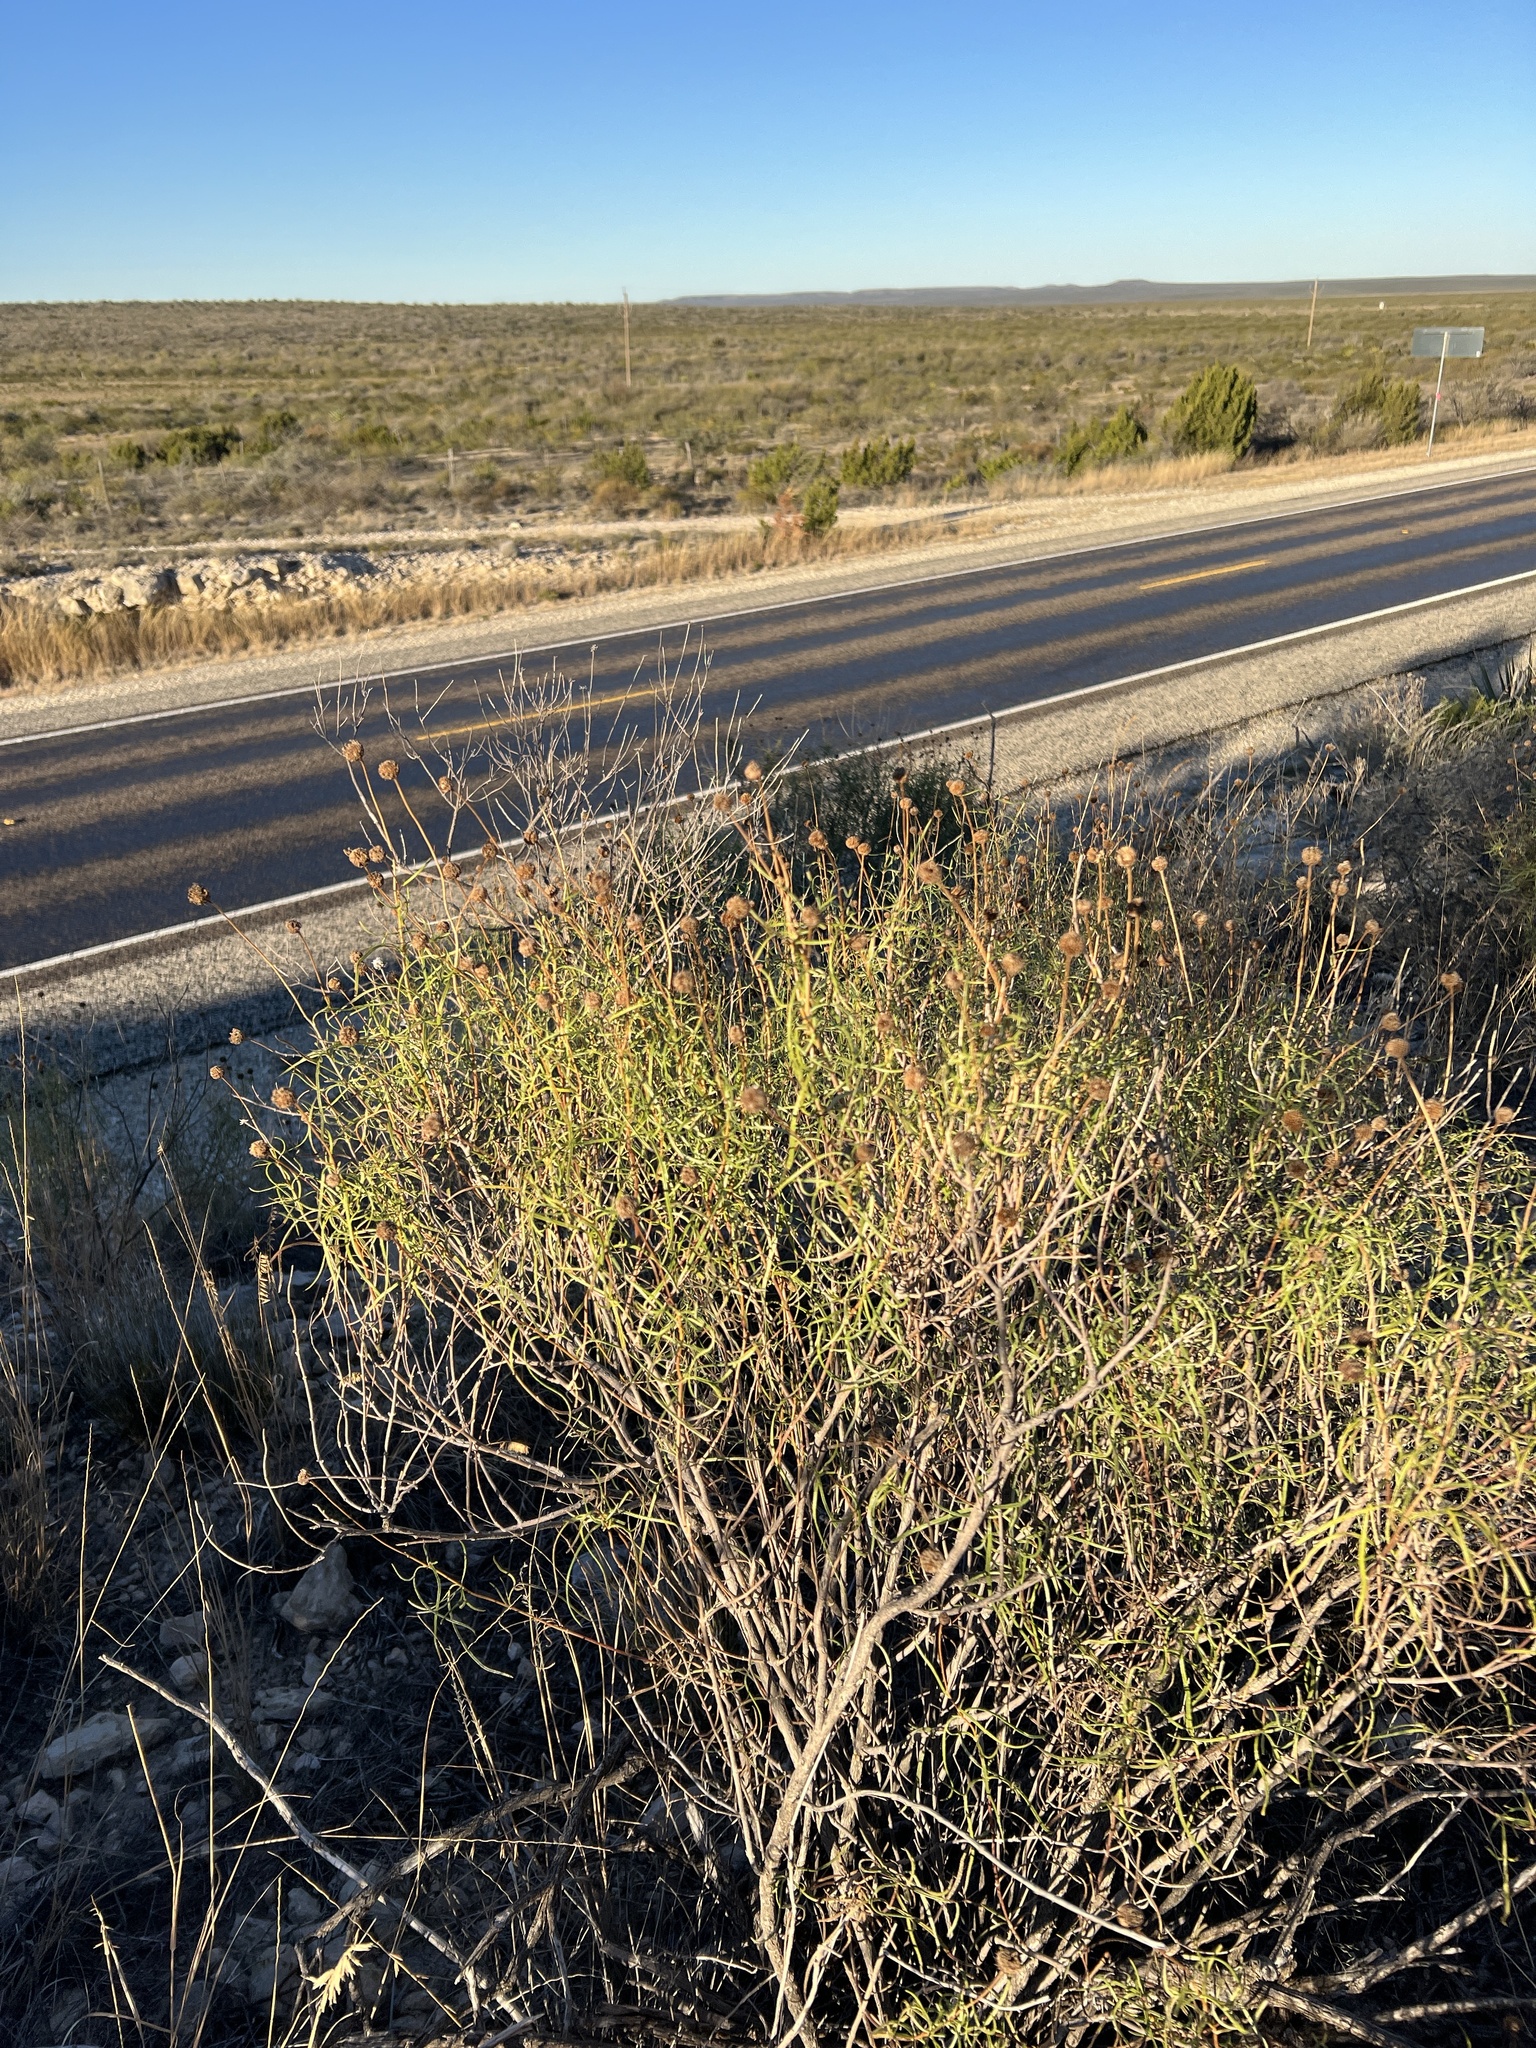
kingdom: Plantae
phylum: Tracheophyta
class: Magnoliopsida
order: Asterales
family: Asteraceae
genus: Sidneya
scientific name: Sidneya tenuifolia
